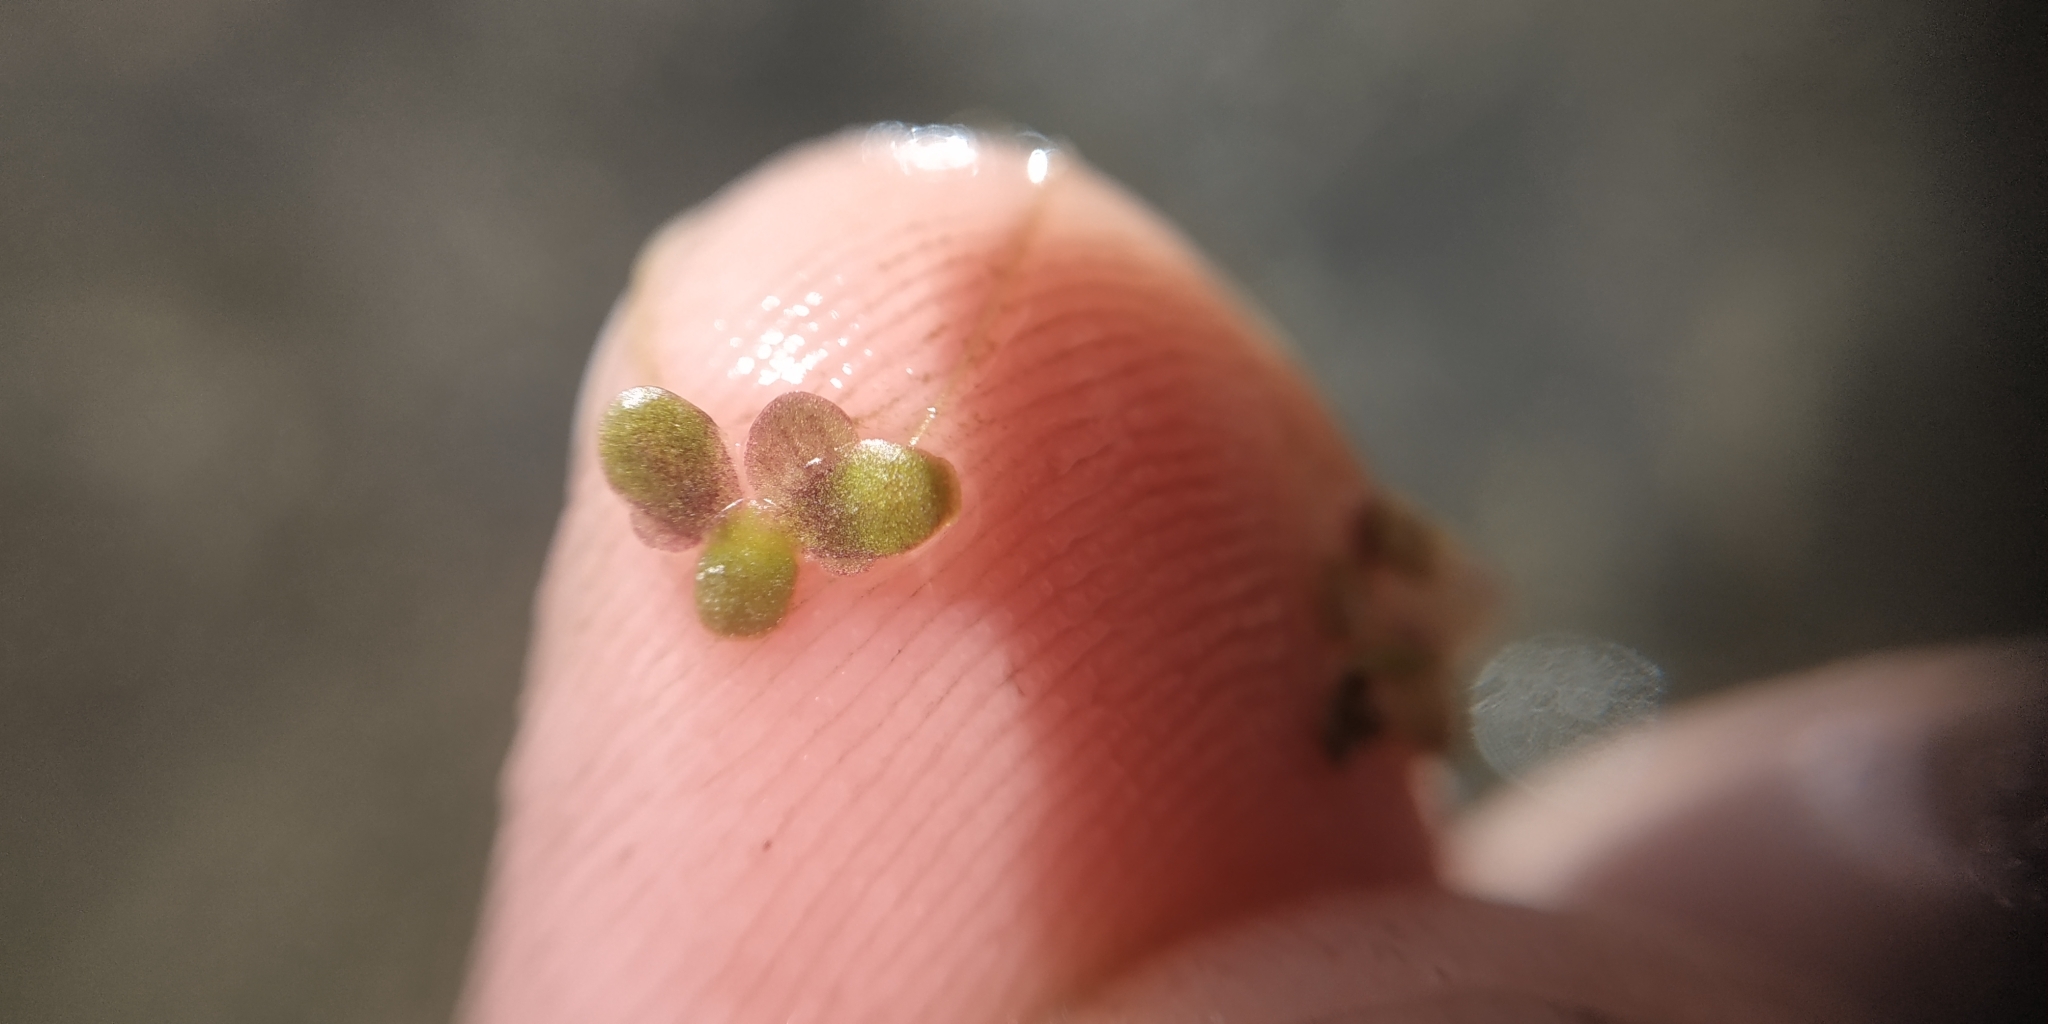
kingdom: Plantae
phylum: Tracheophyta
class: Liliopsida
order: Alismatales
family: Araceae
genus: Lemna
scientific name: Lemna turionifera
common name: Perennial duckweed
